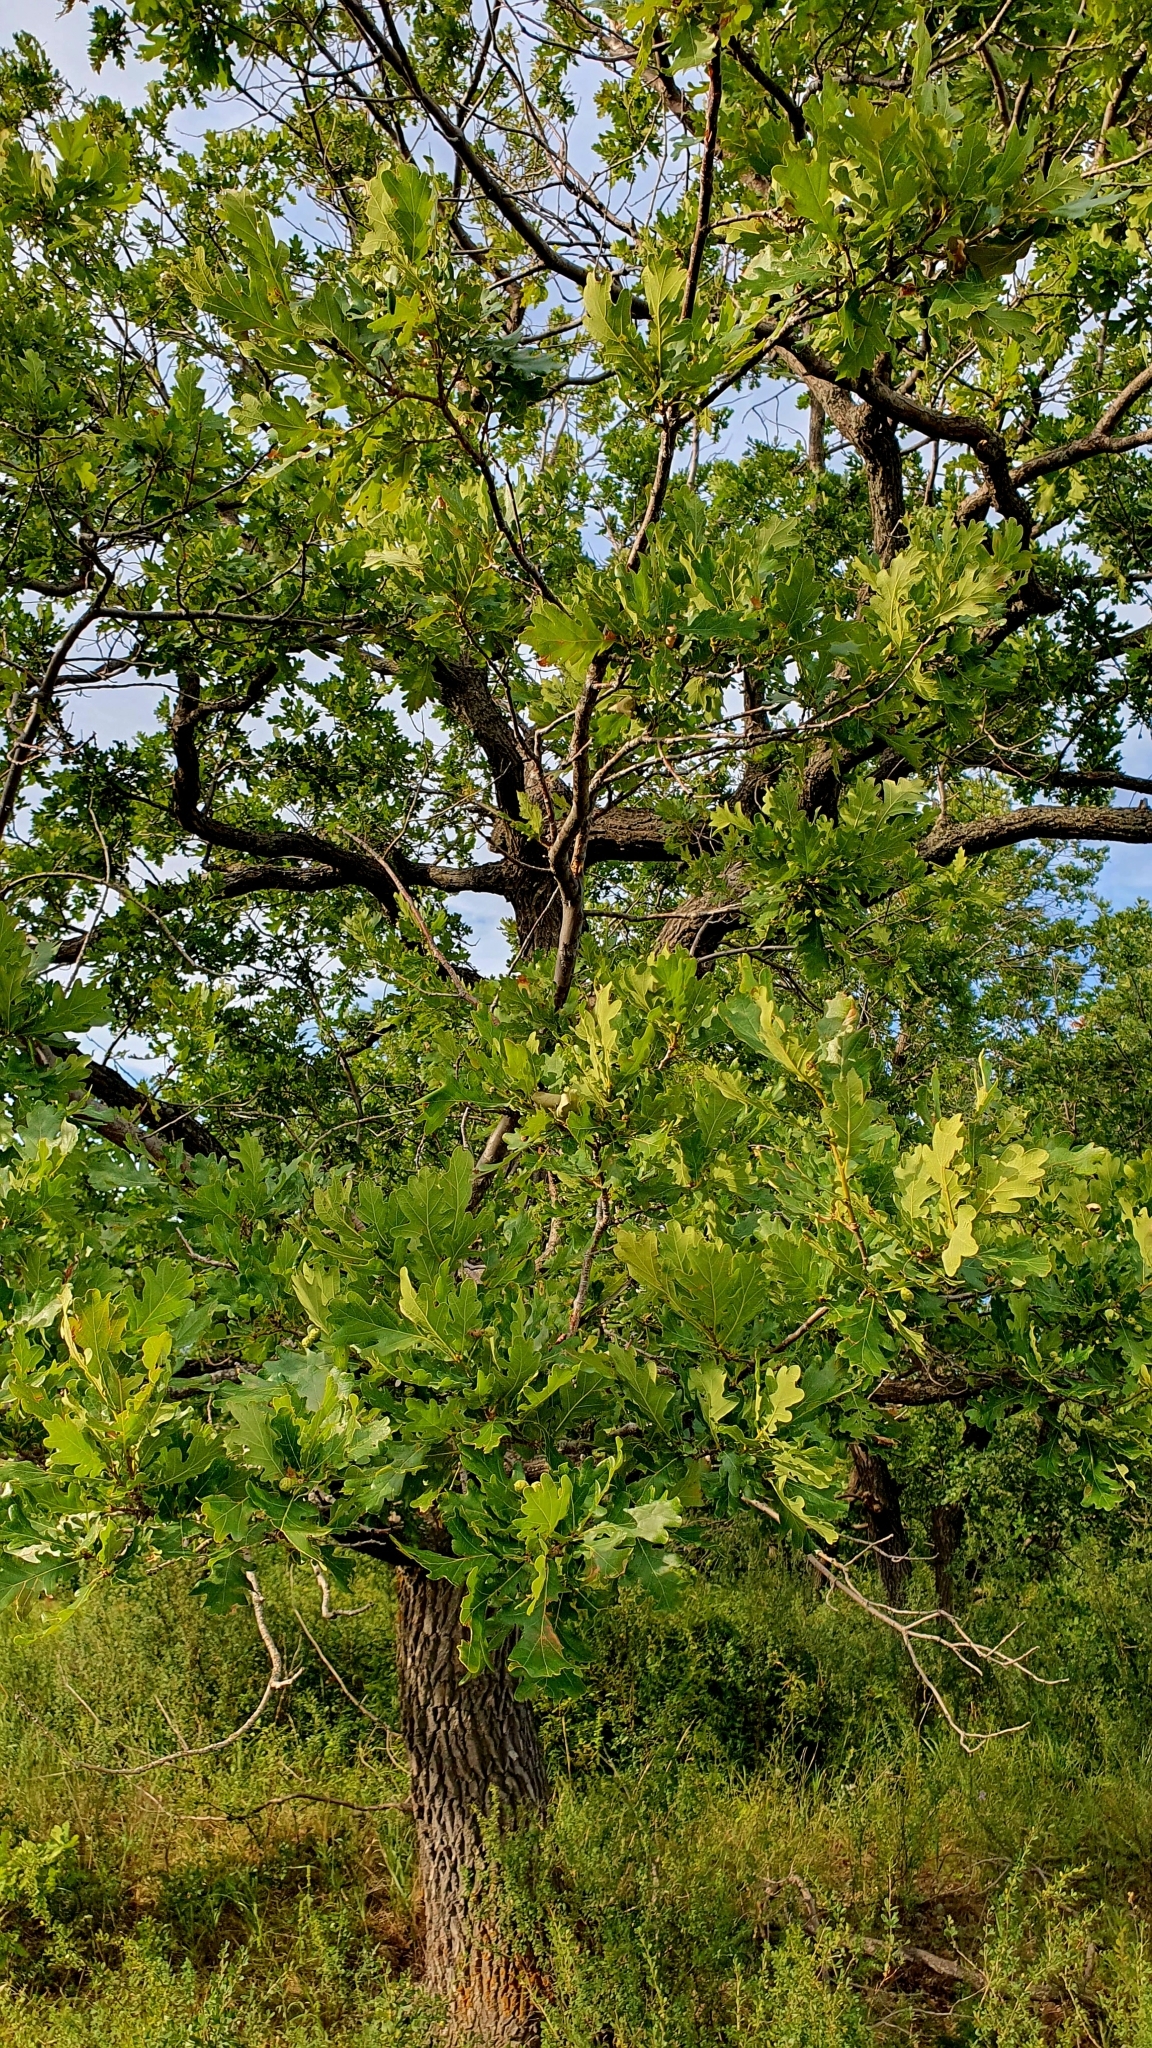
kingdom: Plantae
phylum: Tracheophyta
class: Magnoliopsida
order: Fagales
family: Fagaceae
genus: Quercus
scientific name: Quercus robur
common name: Pedunculate oak
